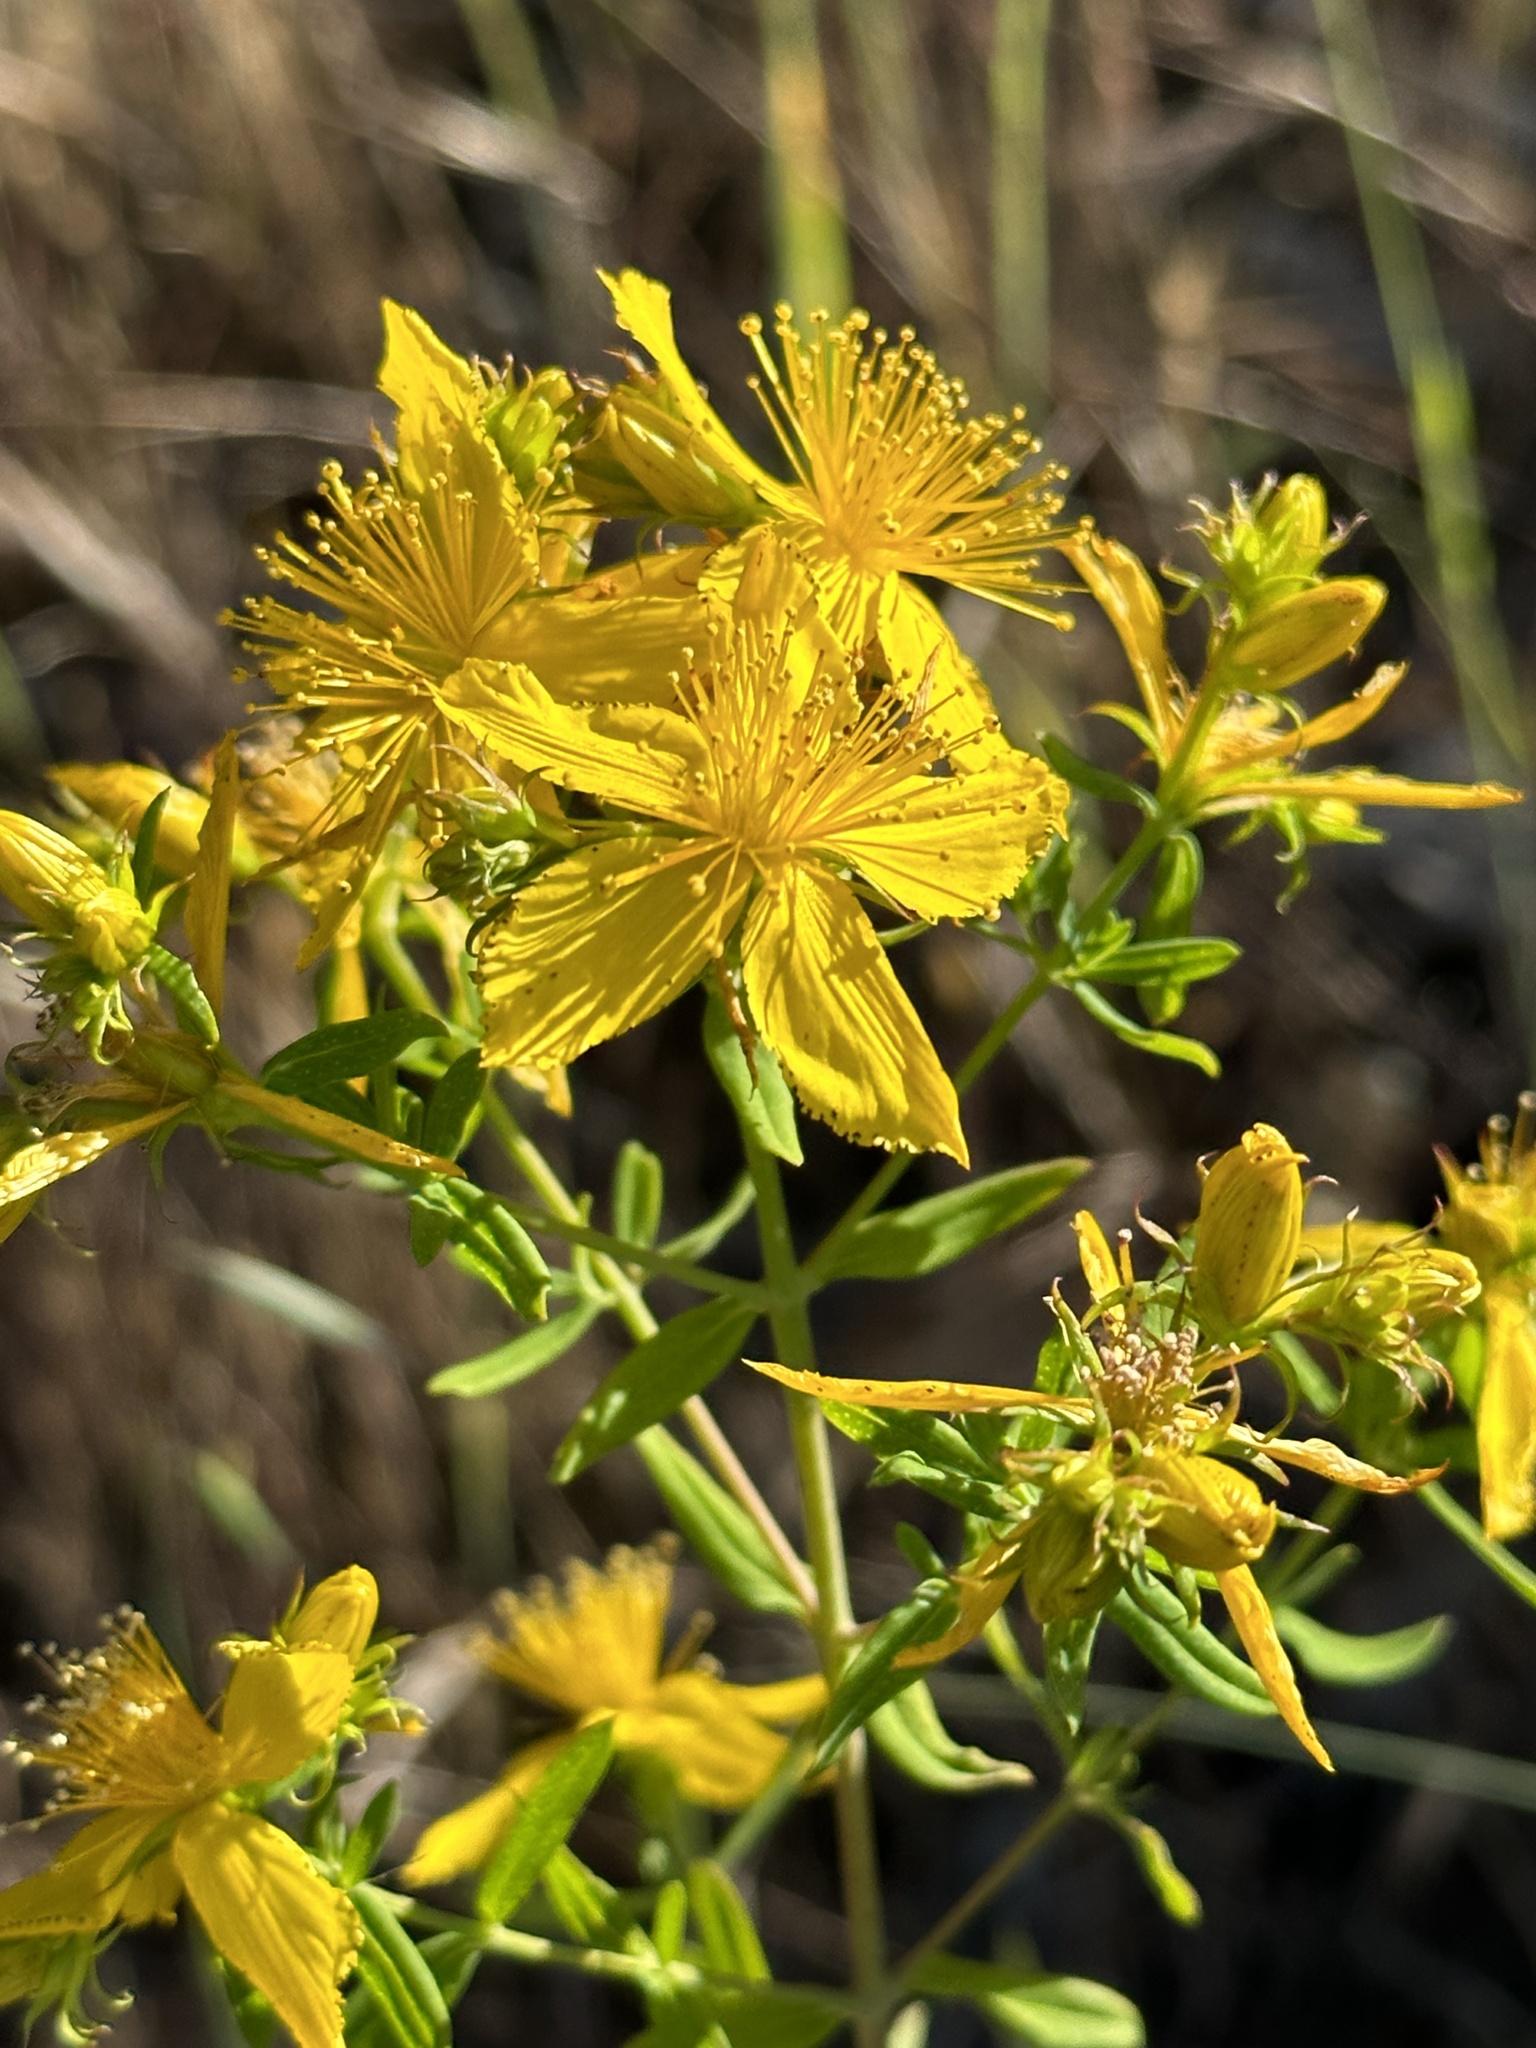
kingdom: Plantae
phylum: Tracheophyta
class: Magnoliopsida
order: Malpighiales
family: Hypericaceae
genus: Hypericum
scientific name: Hypericum perforatum
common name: Common st. johnswort
